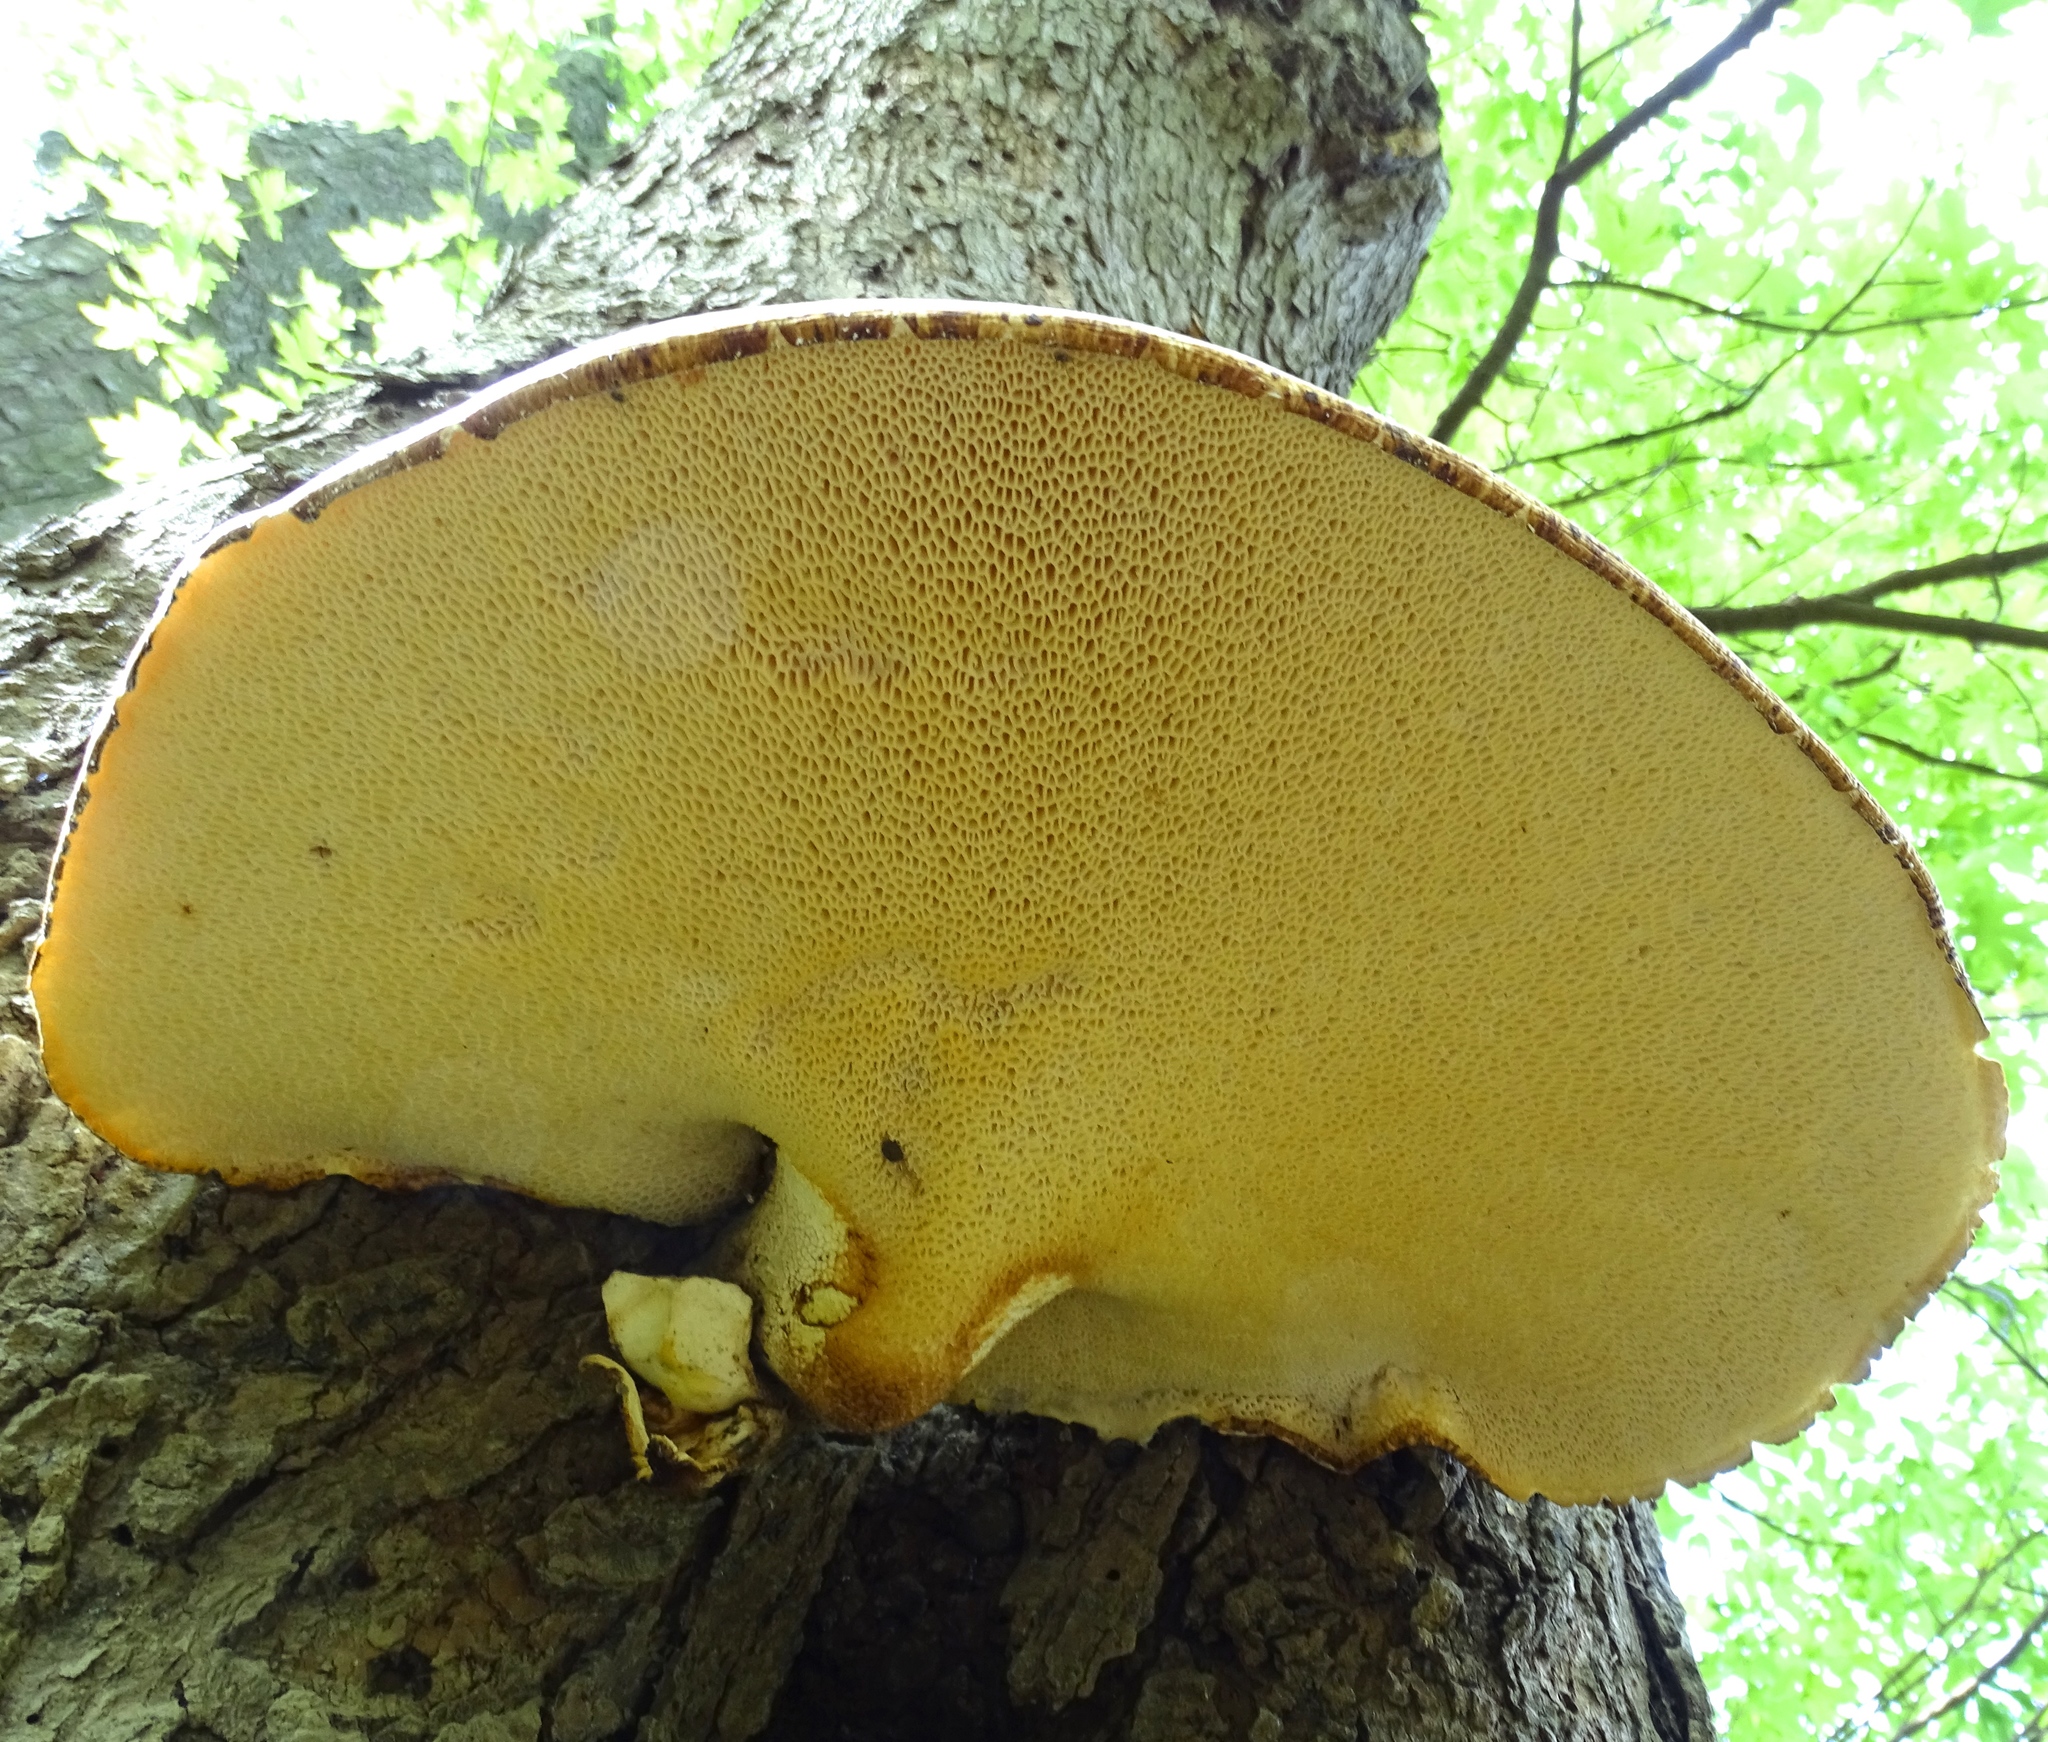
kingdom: Fungi
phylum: Basidiomycota
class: Agaricomycetes
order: Polyporales
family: Polyporaceae
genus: Cerioporus
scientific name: Cerioporus squamosus
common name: Dryad's saddle
